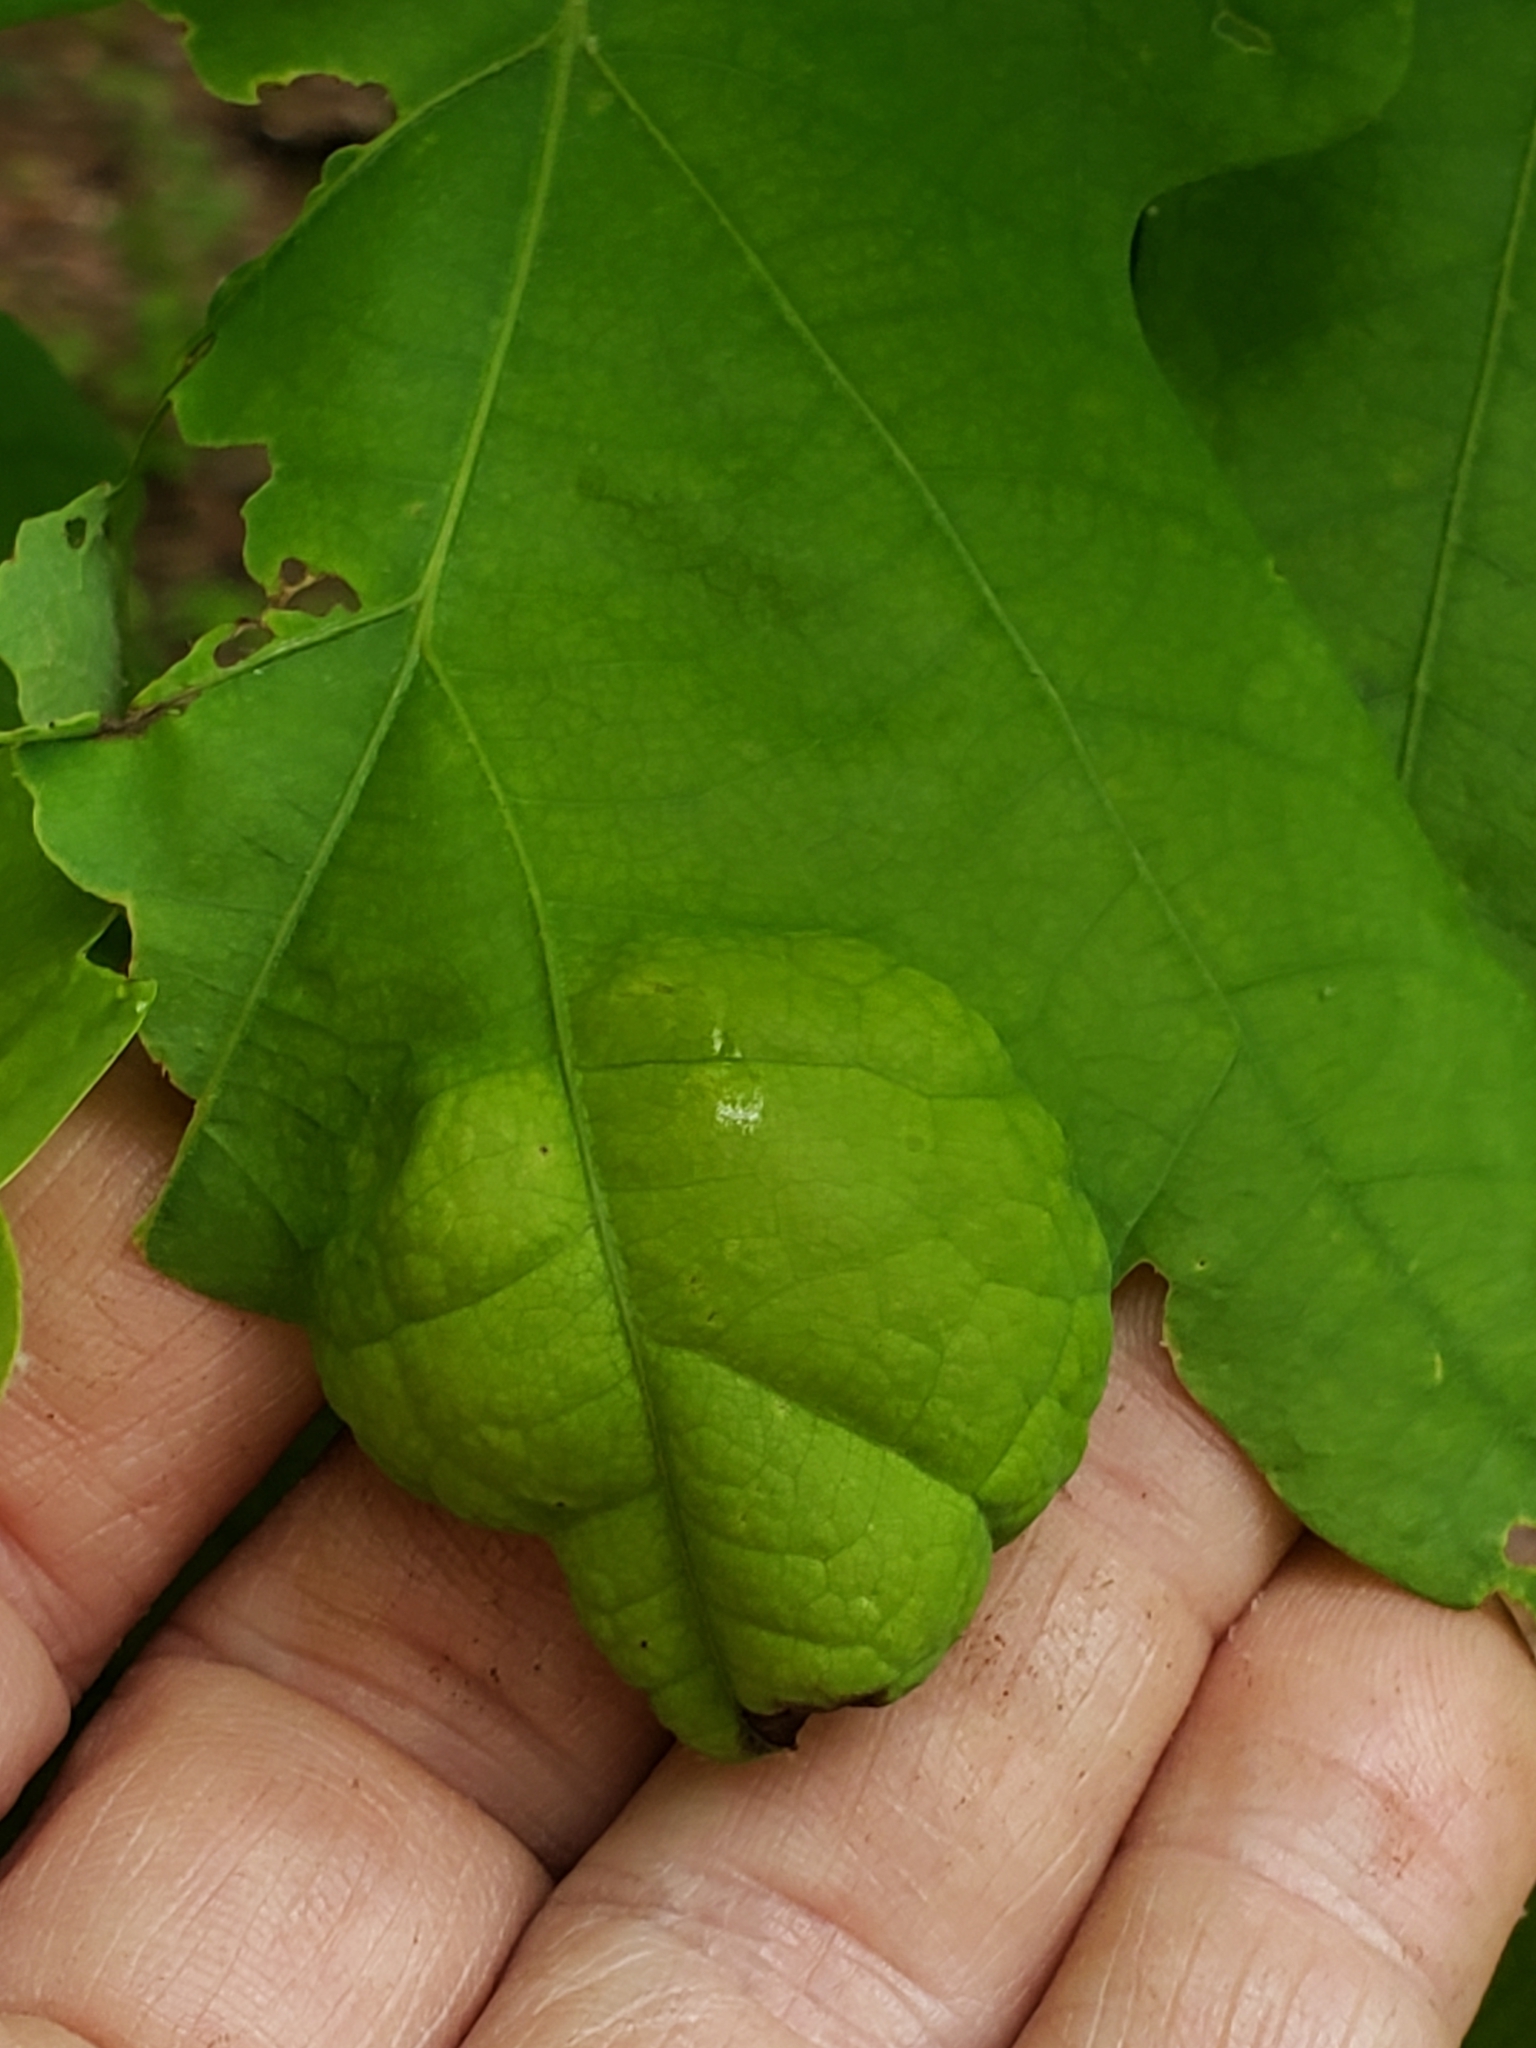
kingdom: Fungi
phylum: Ascomycota
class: Taphrinomycetes
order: Taphrinales
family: Taphrinaceae
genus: Taphrina
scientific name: Taphrina caerulescens
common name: Oak leaf blister
